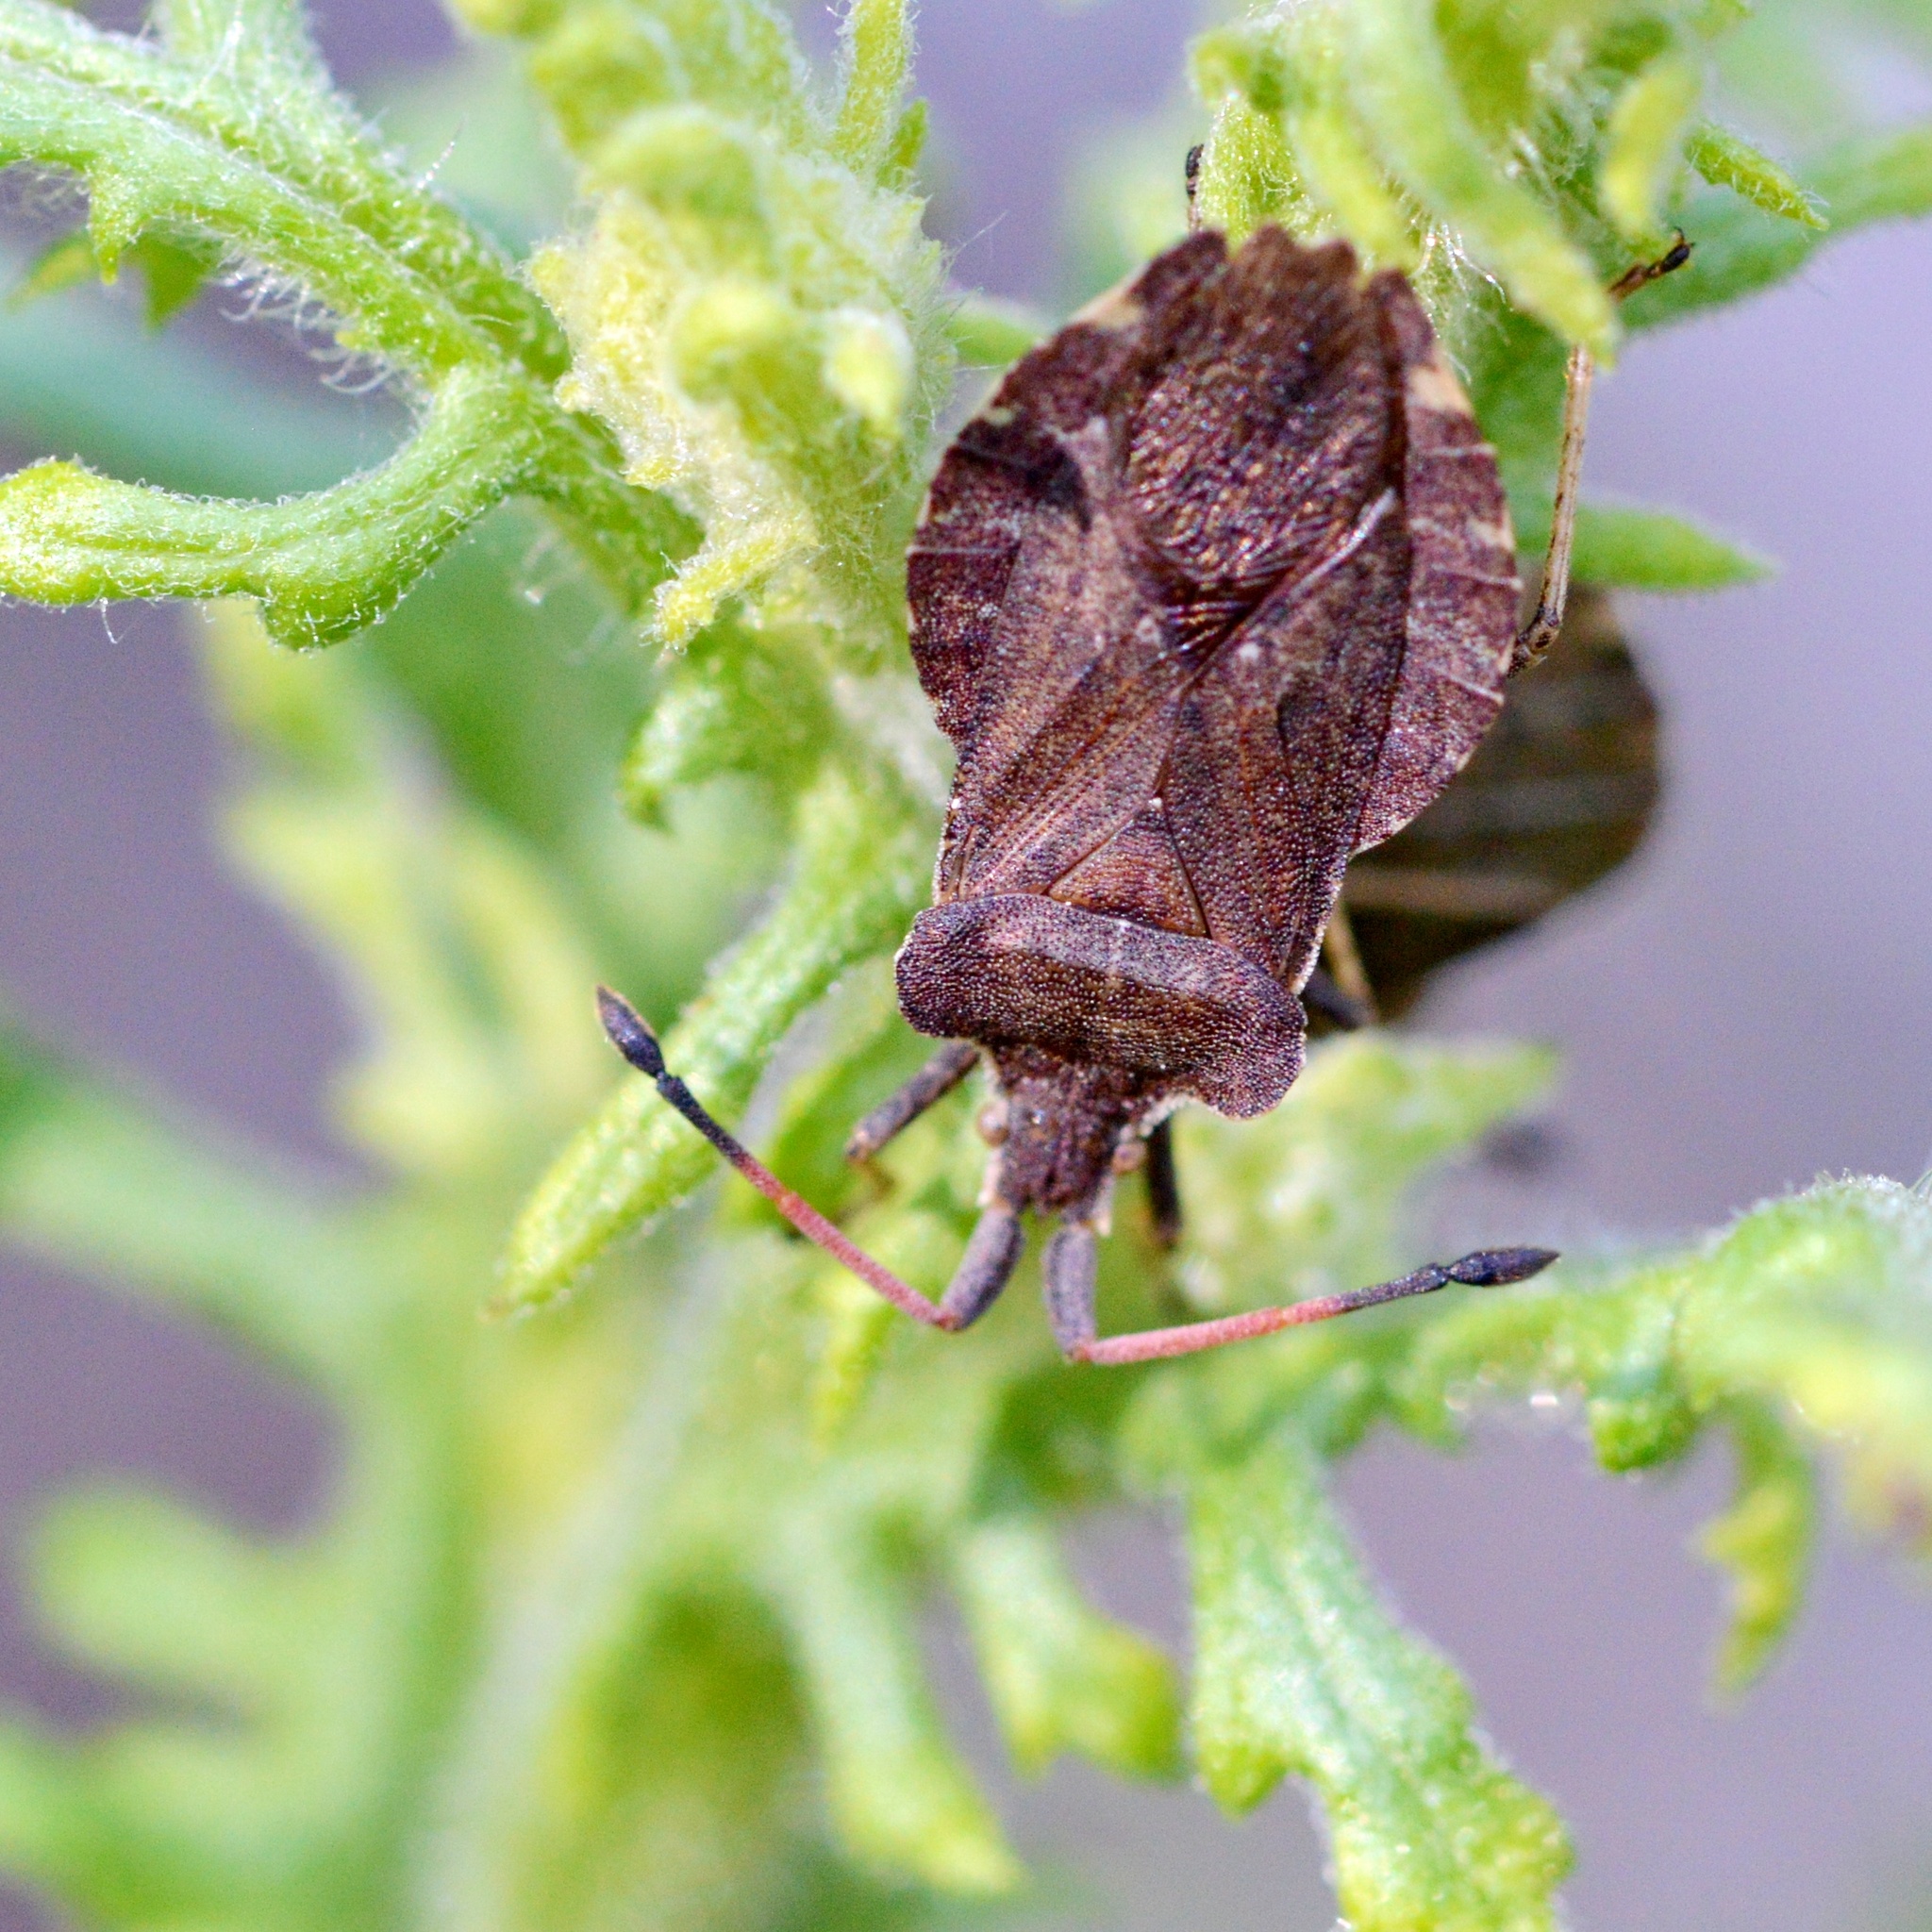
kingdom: Animalia
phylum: Arthropoda
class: Insecta
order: Hemiptera
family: Coreidae
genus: Enoplops
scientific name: Enoplops scapha
